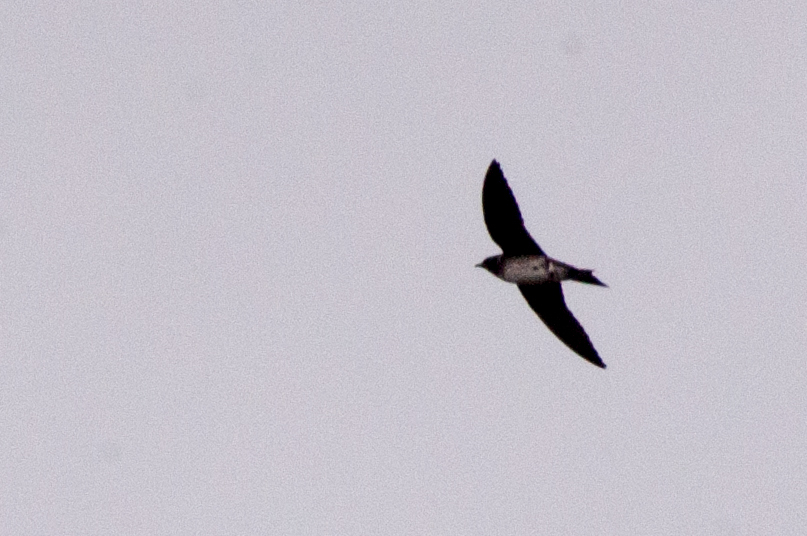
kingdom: Animalia
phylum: Chordata
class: Aves
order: Passeriformes
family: Hirundinidae
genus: Progne
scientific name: Progne subis
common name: Purple martin
